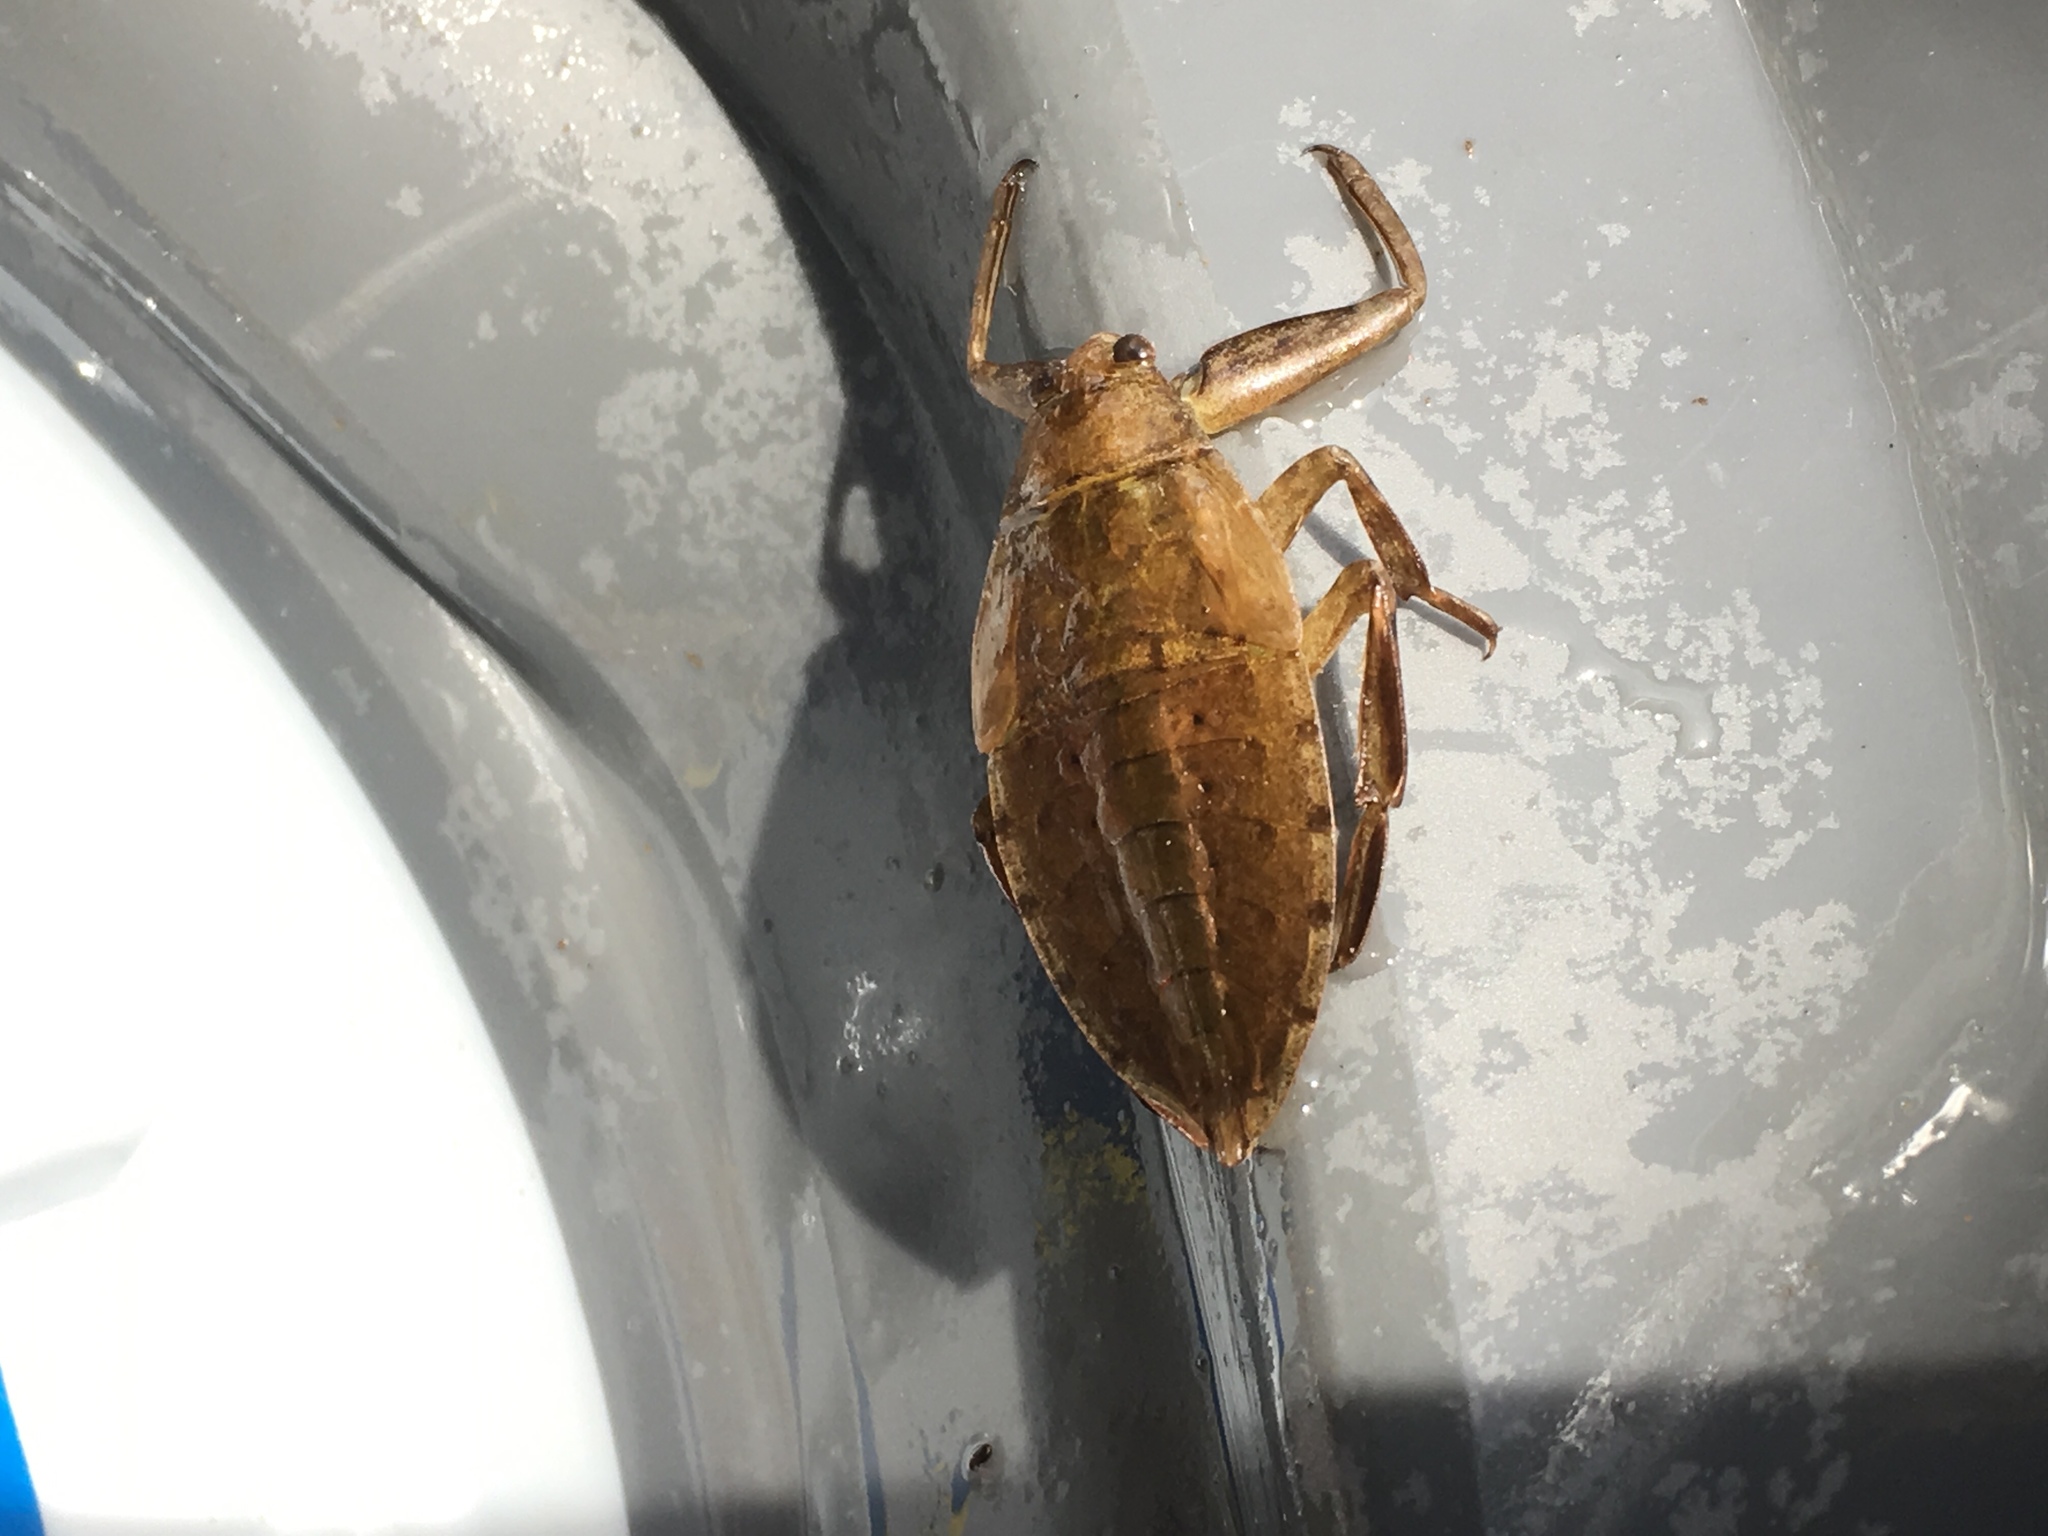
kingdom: Animalia
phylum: Arthropoda
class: Insecta
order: Hemiptera
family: Belostomatidae
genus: Lethocerus
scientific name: Lethocerus americanus
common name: Giant water bug
